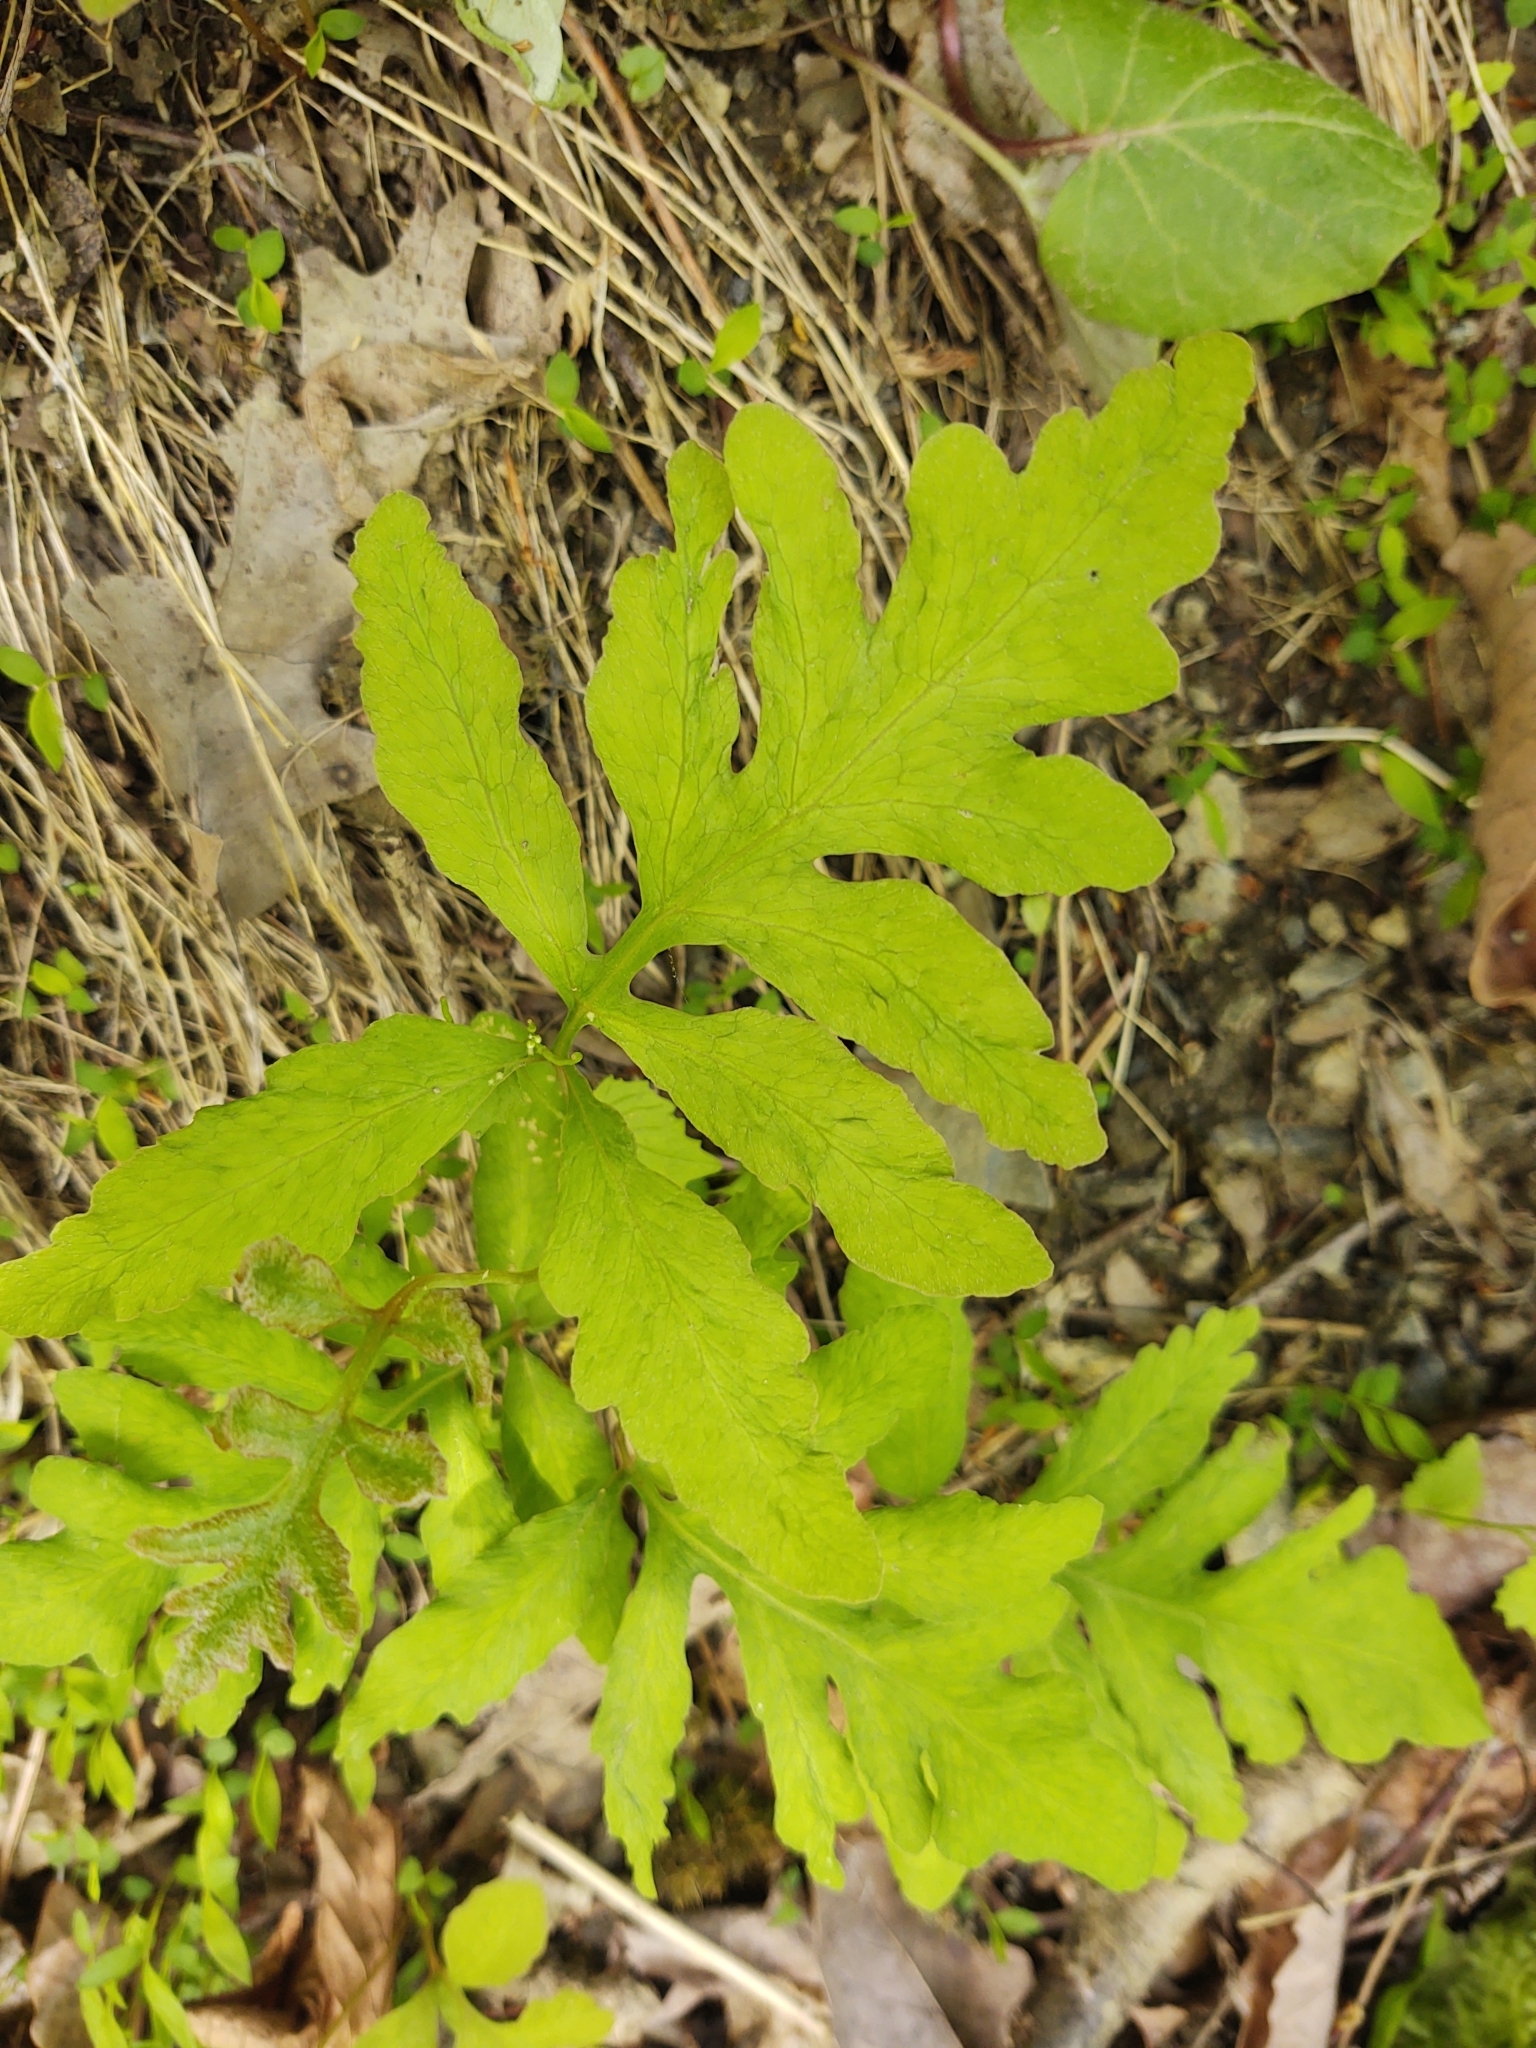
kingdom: Plantae
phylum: Tracheophyta
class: Polypodiopsida
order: Polypodiales
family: Onocleaceae
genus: Onoclea
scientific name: Onoclea sensibilis
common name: Sensitive fern
